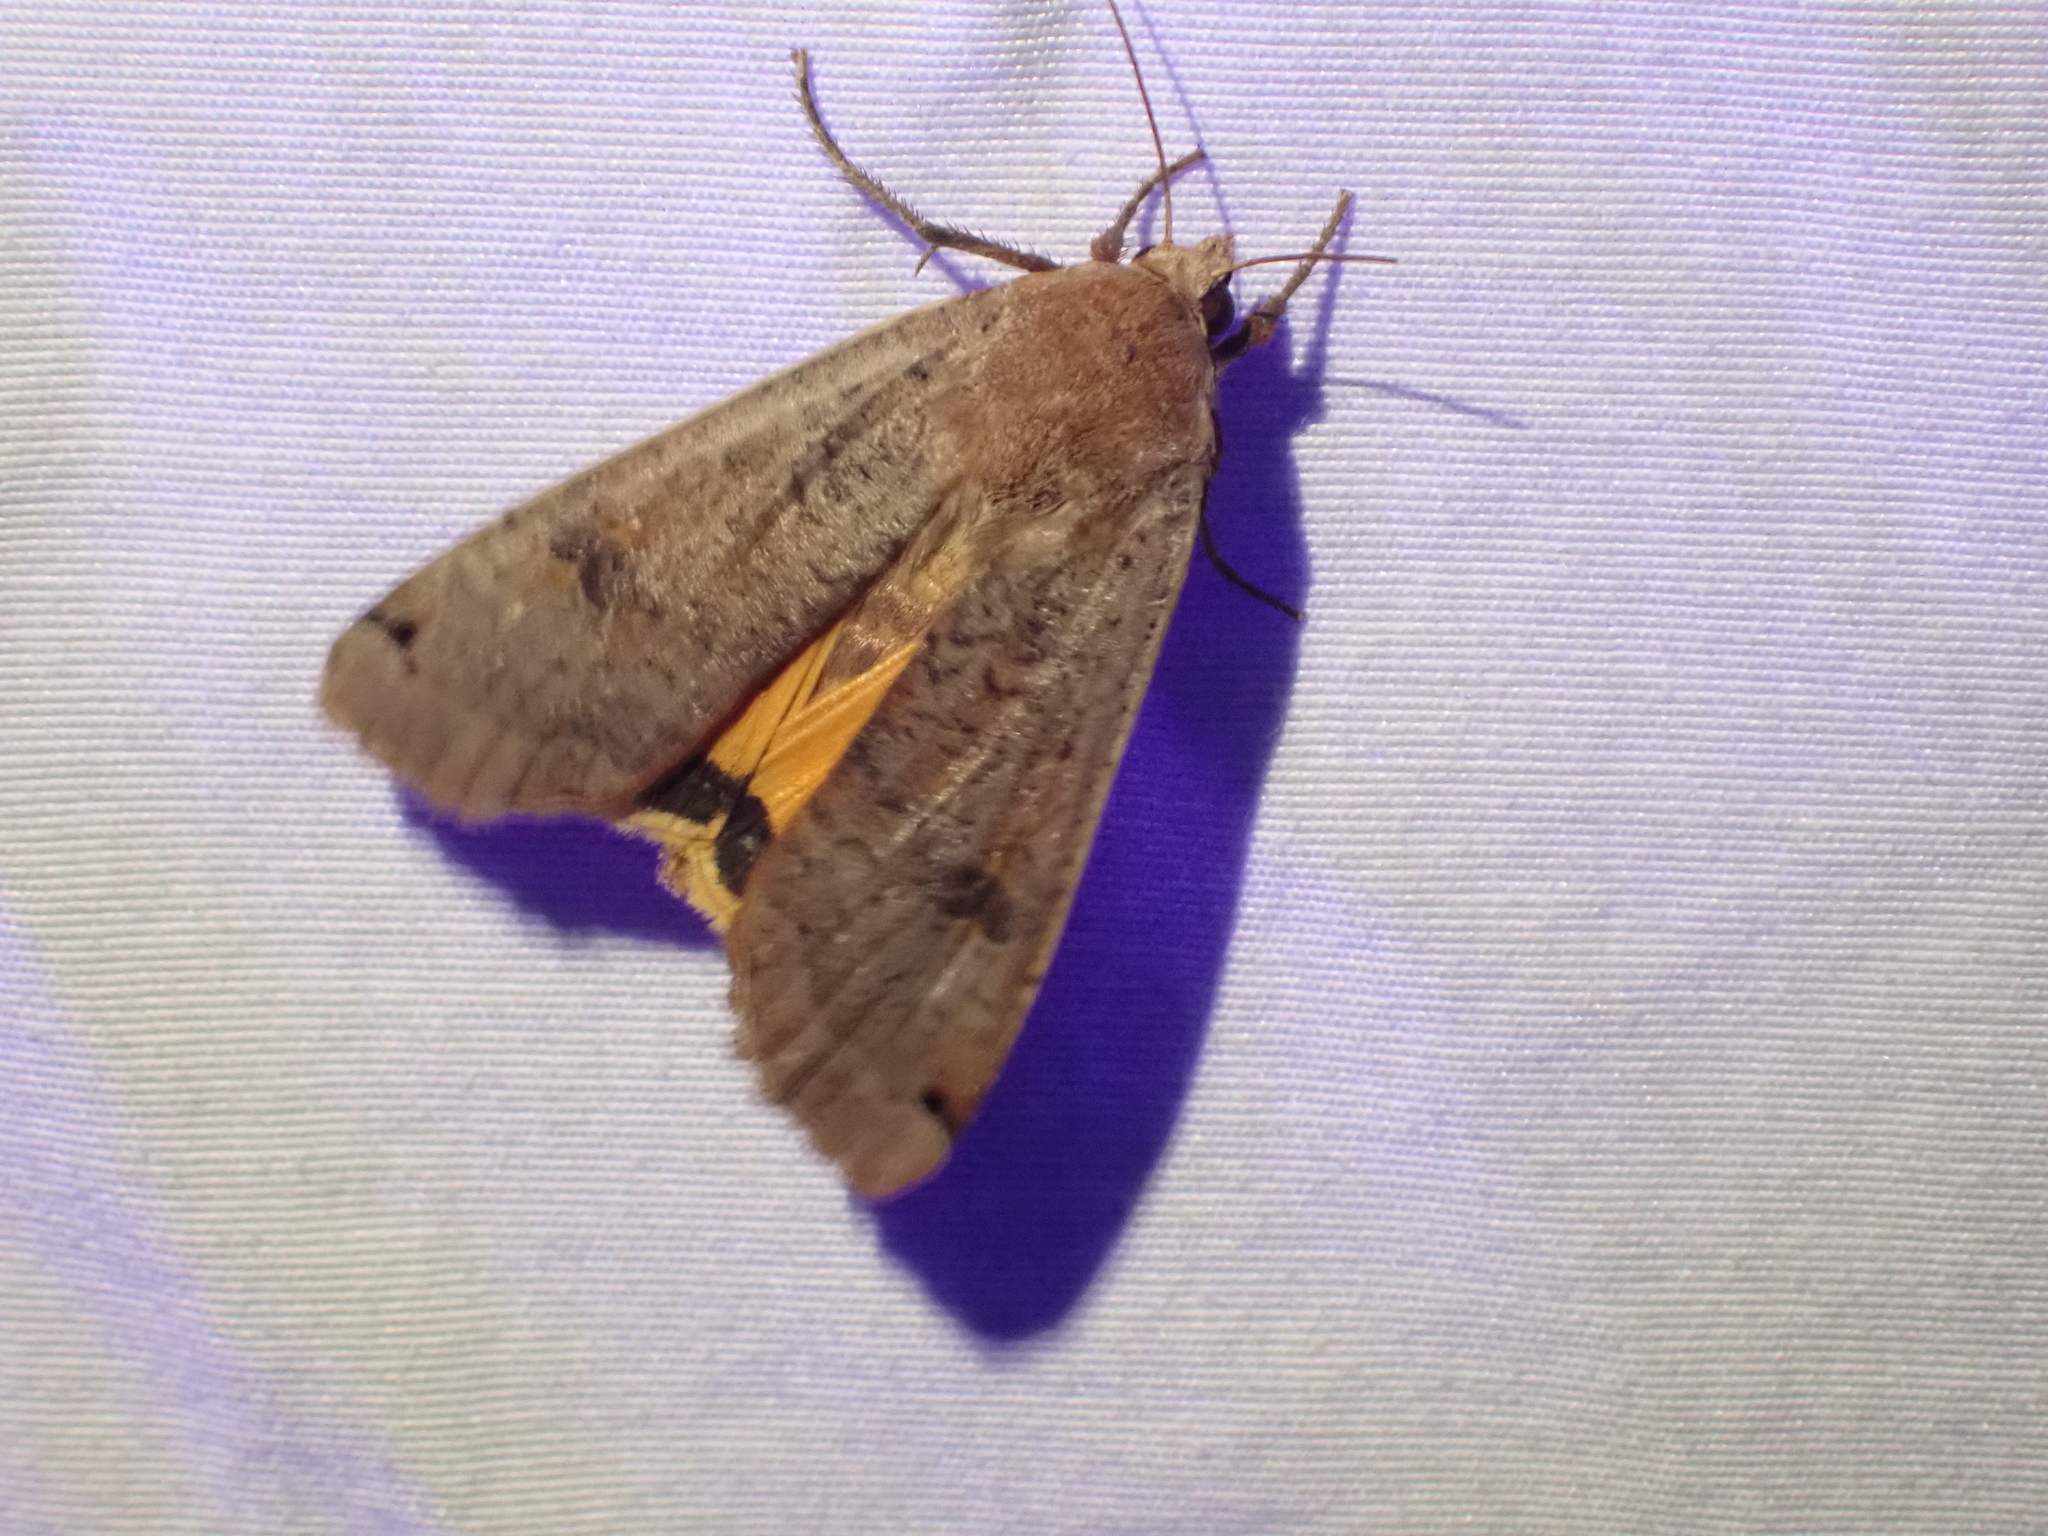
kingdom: Animalia
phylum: Arthropoda
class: Insecta
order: Lepidoptera
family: Noctuidae
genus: Noctua
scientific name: Noctua pronuba
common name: Large yellow underwing
